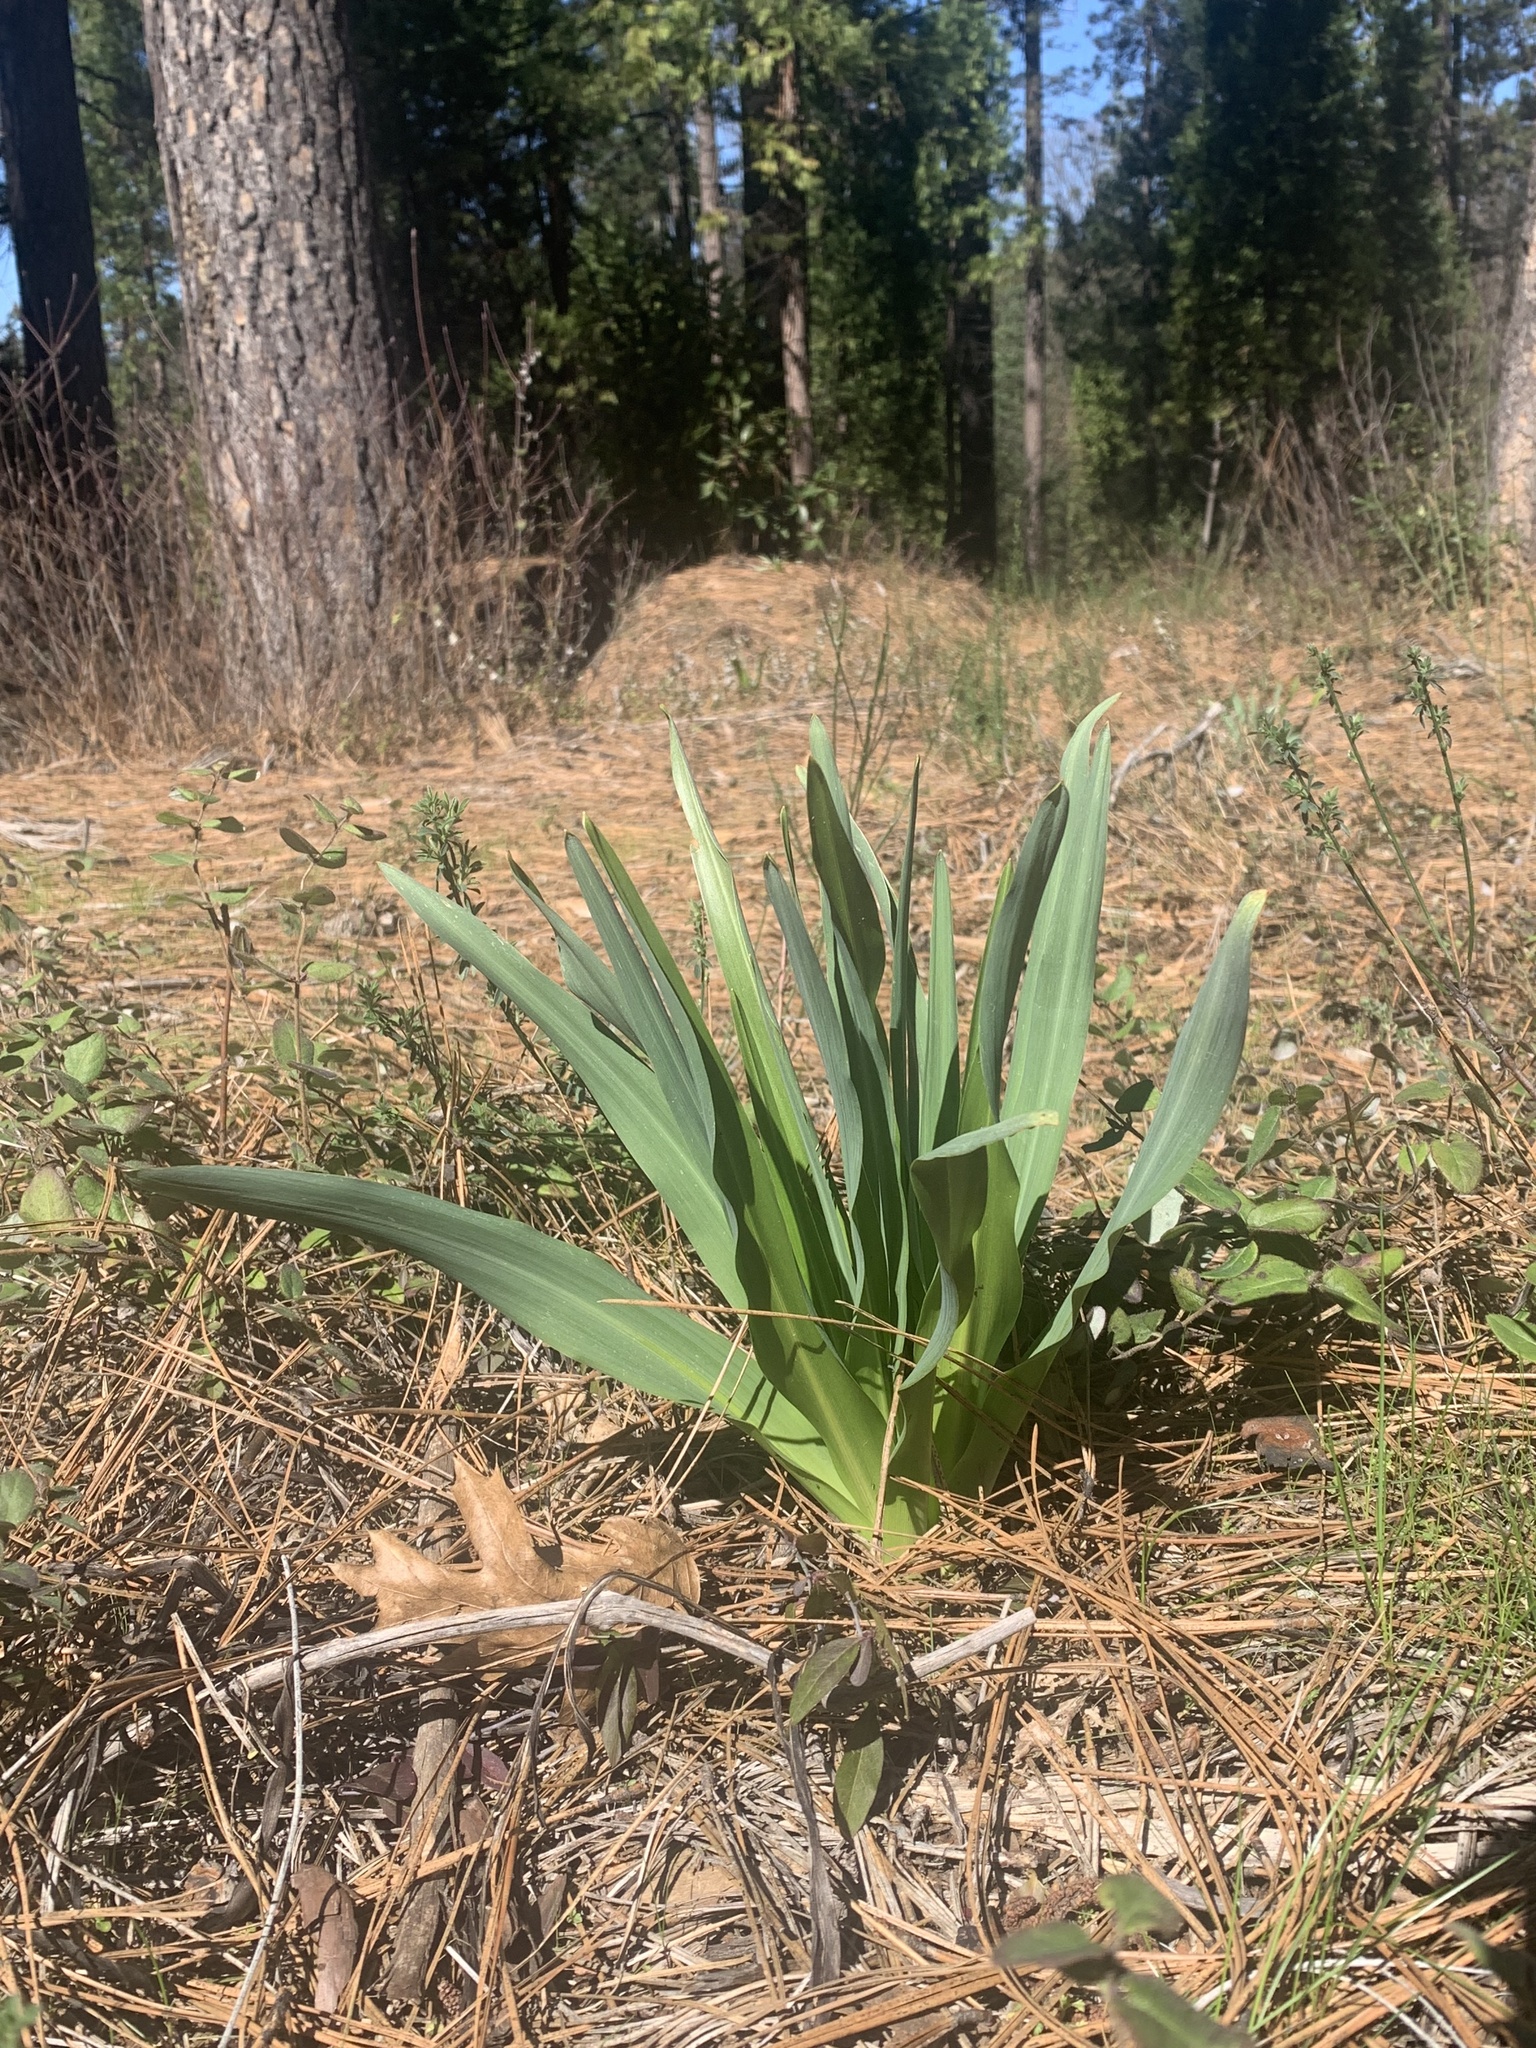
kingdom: Plantae
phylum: Tracheophyta
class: Liliopsida
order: Asparagales
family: Asparagaceae
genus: Chlorogalum
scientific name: Chlorogalum pomeridianum
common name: Amole
